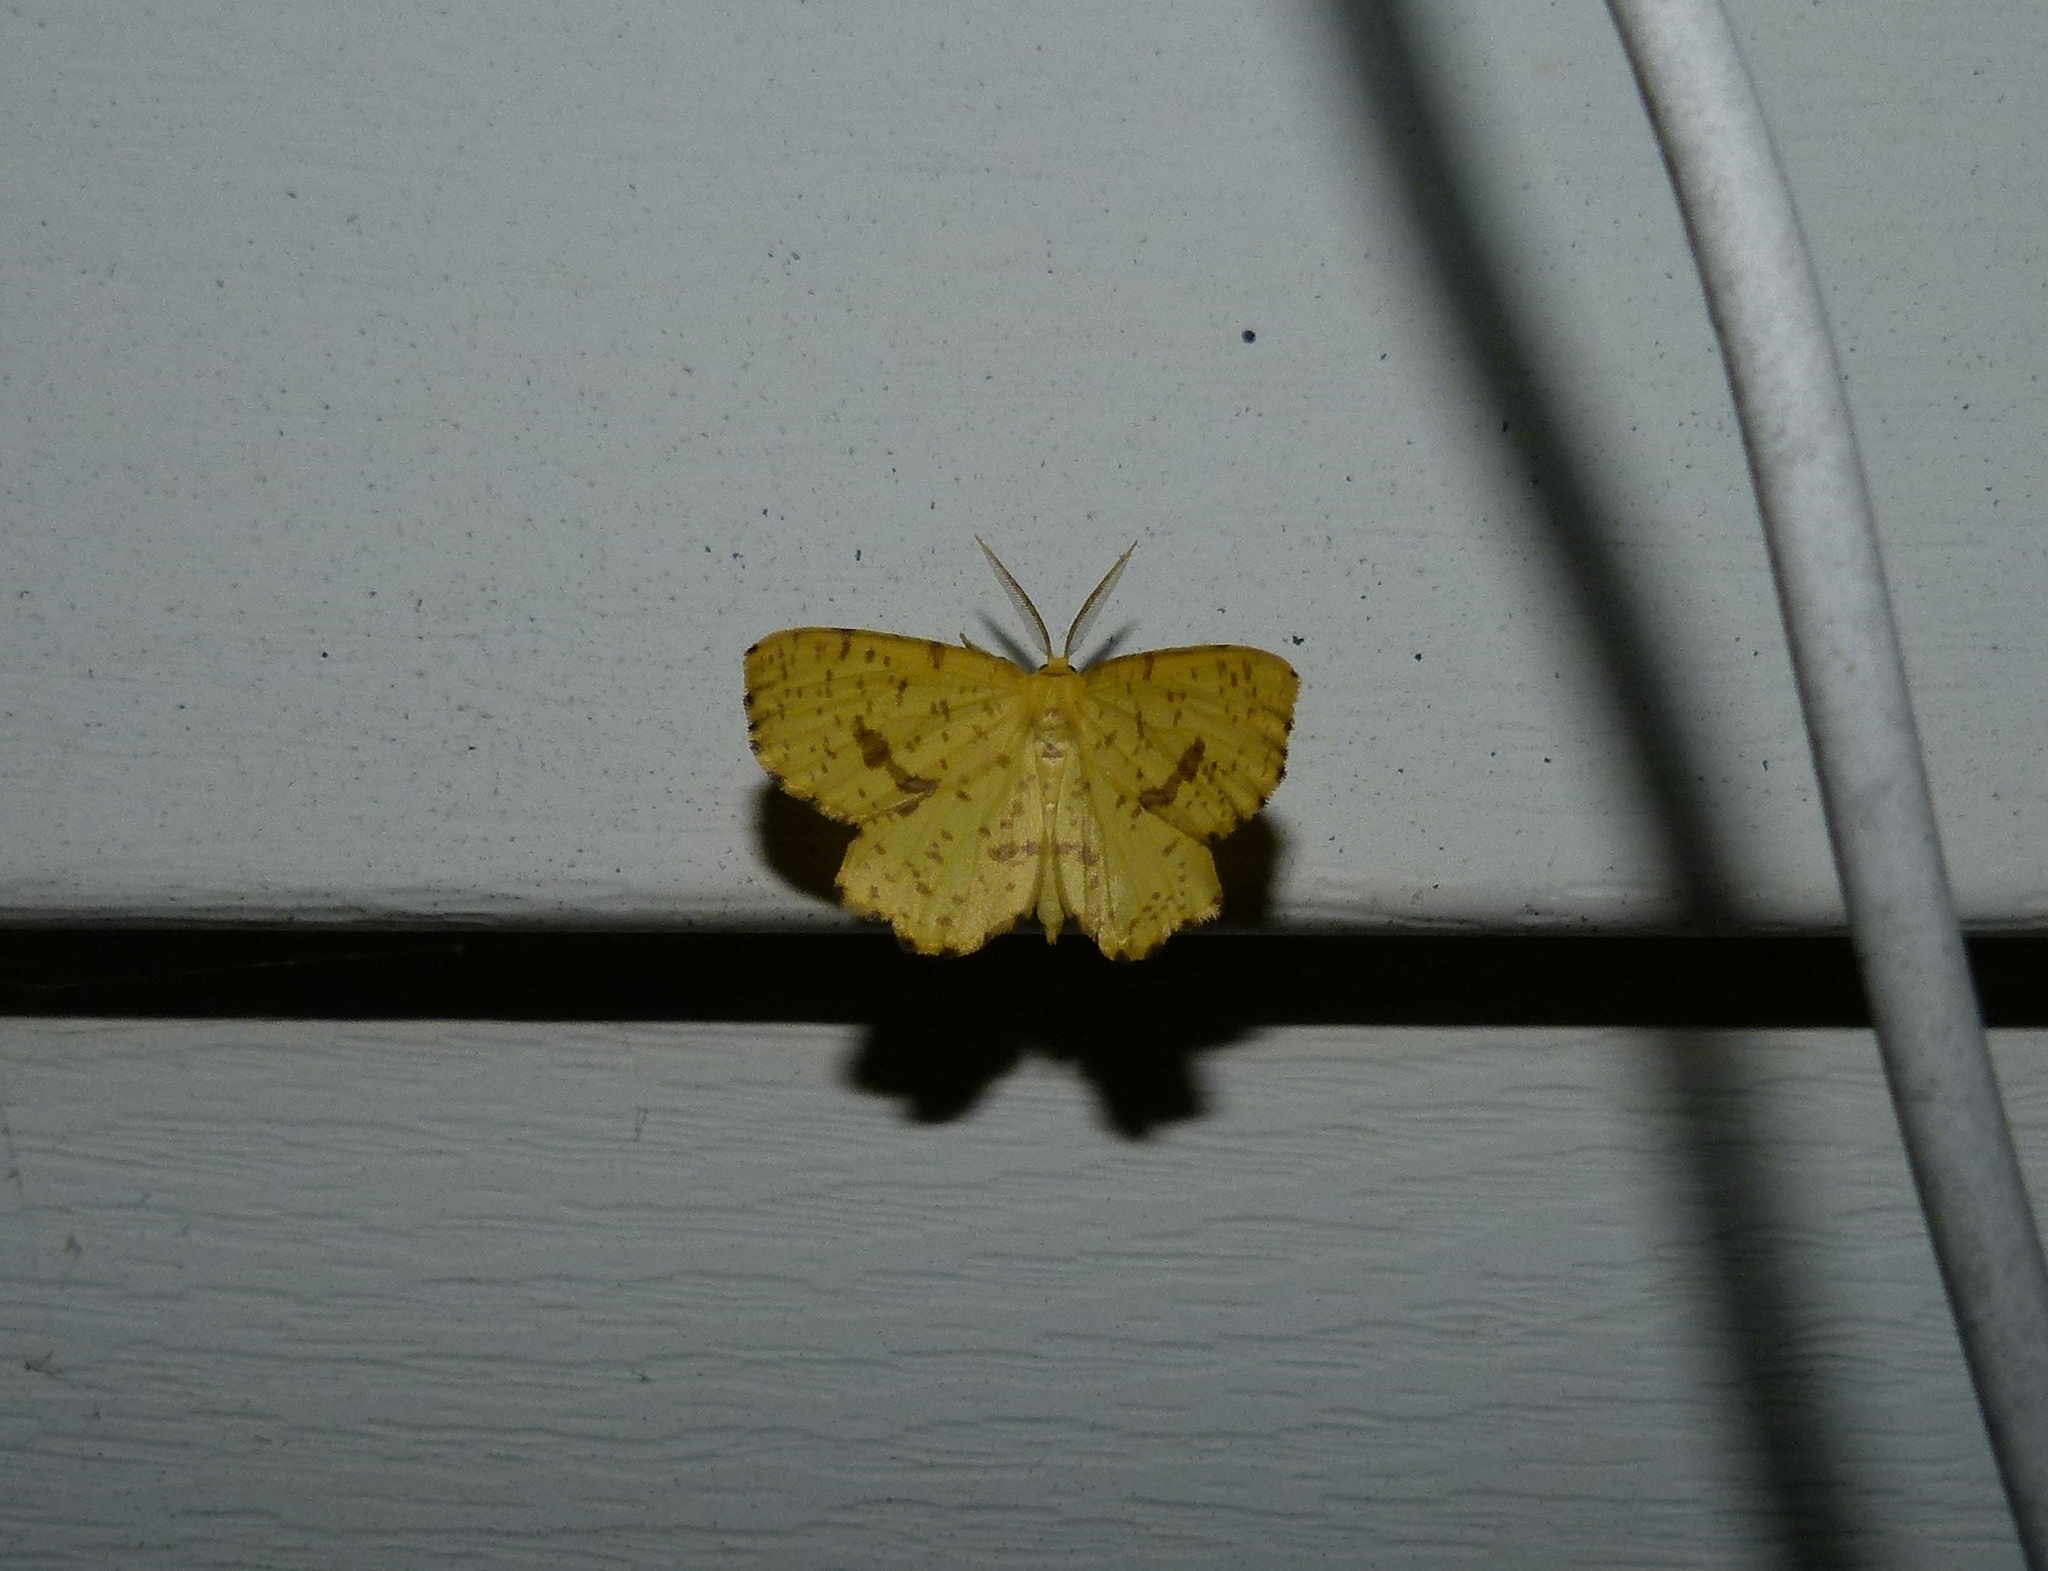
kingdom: Animalia
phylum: Arthropoda
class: Insecta
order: Lepidoptera
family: Geometridae
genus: Xanthotype
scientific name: Xanthotype
